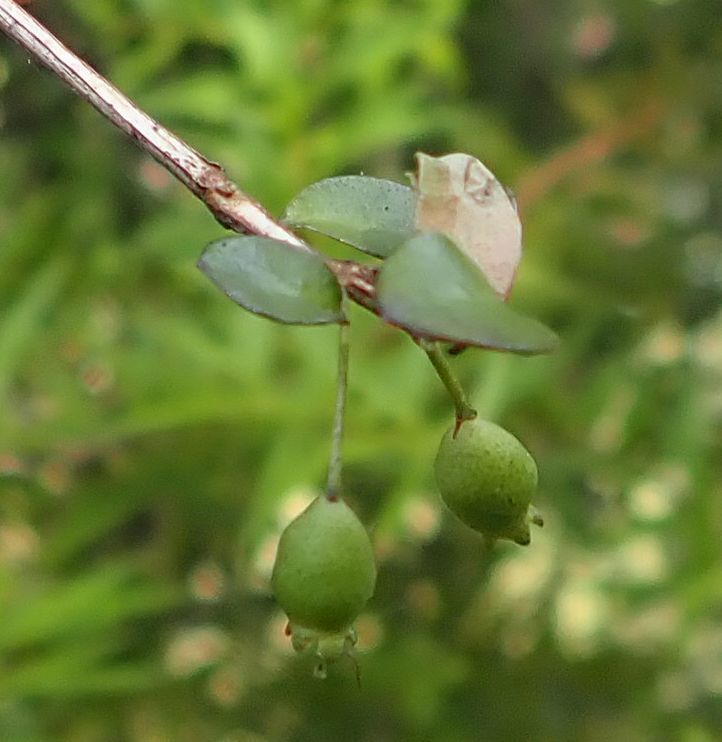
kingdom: Plantae
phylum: Tracheophyta
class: Magnoliopsida
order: Myrtales
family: Myrtaceae
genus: Neomyrtus
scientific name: Neomyrtus pedunculata
